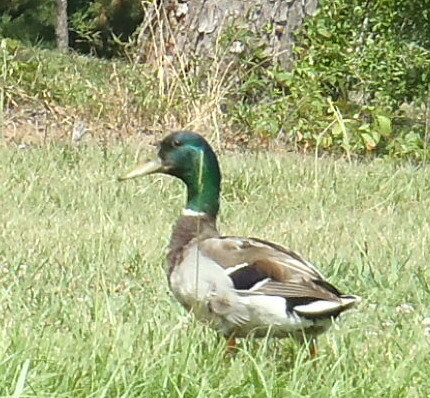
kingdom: Animalia
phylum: Chordata
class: Aves
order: Anseriformes
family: Anatidae
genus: Anas
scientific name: Anas platyrhynchos
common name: Mallard
